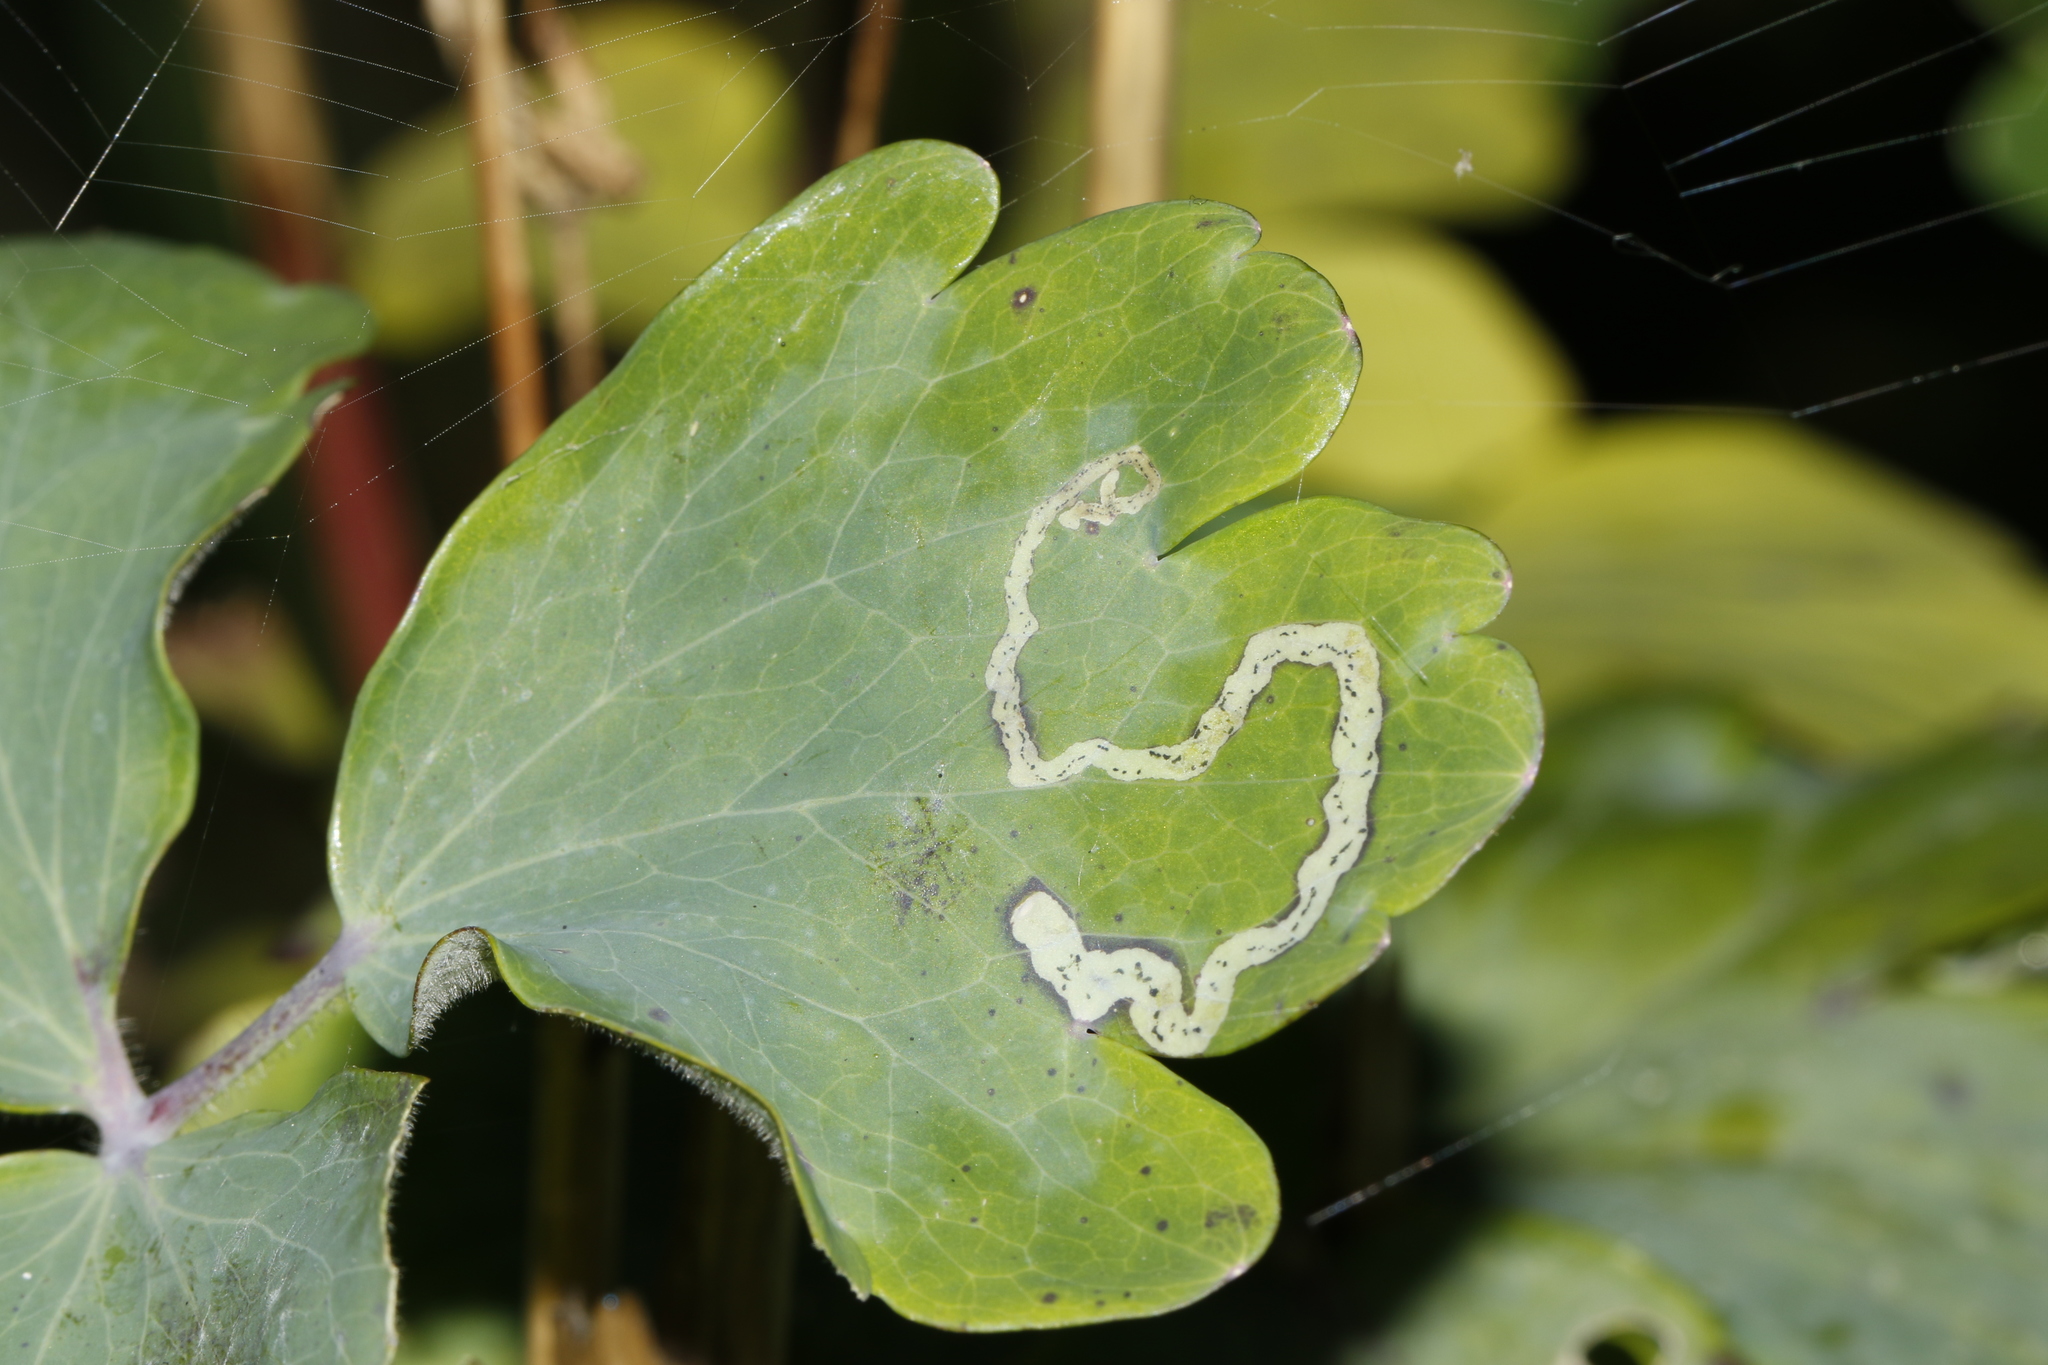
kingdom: Animalia
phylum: Arthropoda
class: Insecta
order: Diptera
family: Agromyzidae
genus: Phytomyza
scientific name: Phytomyza ancholiae
